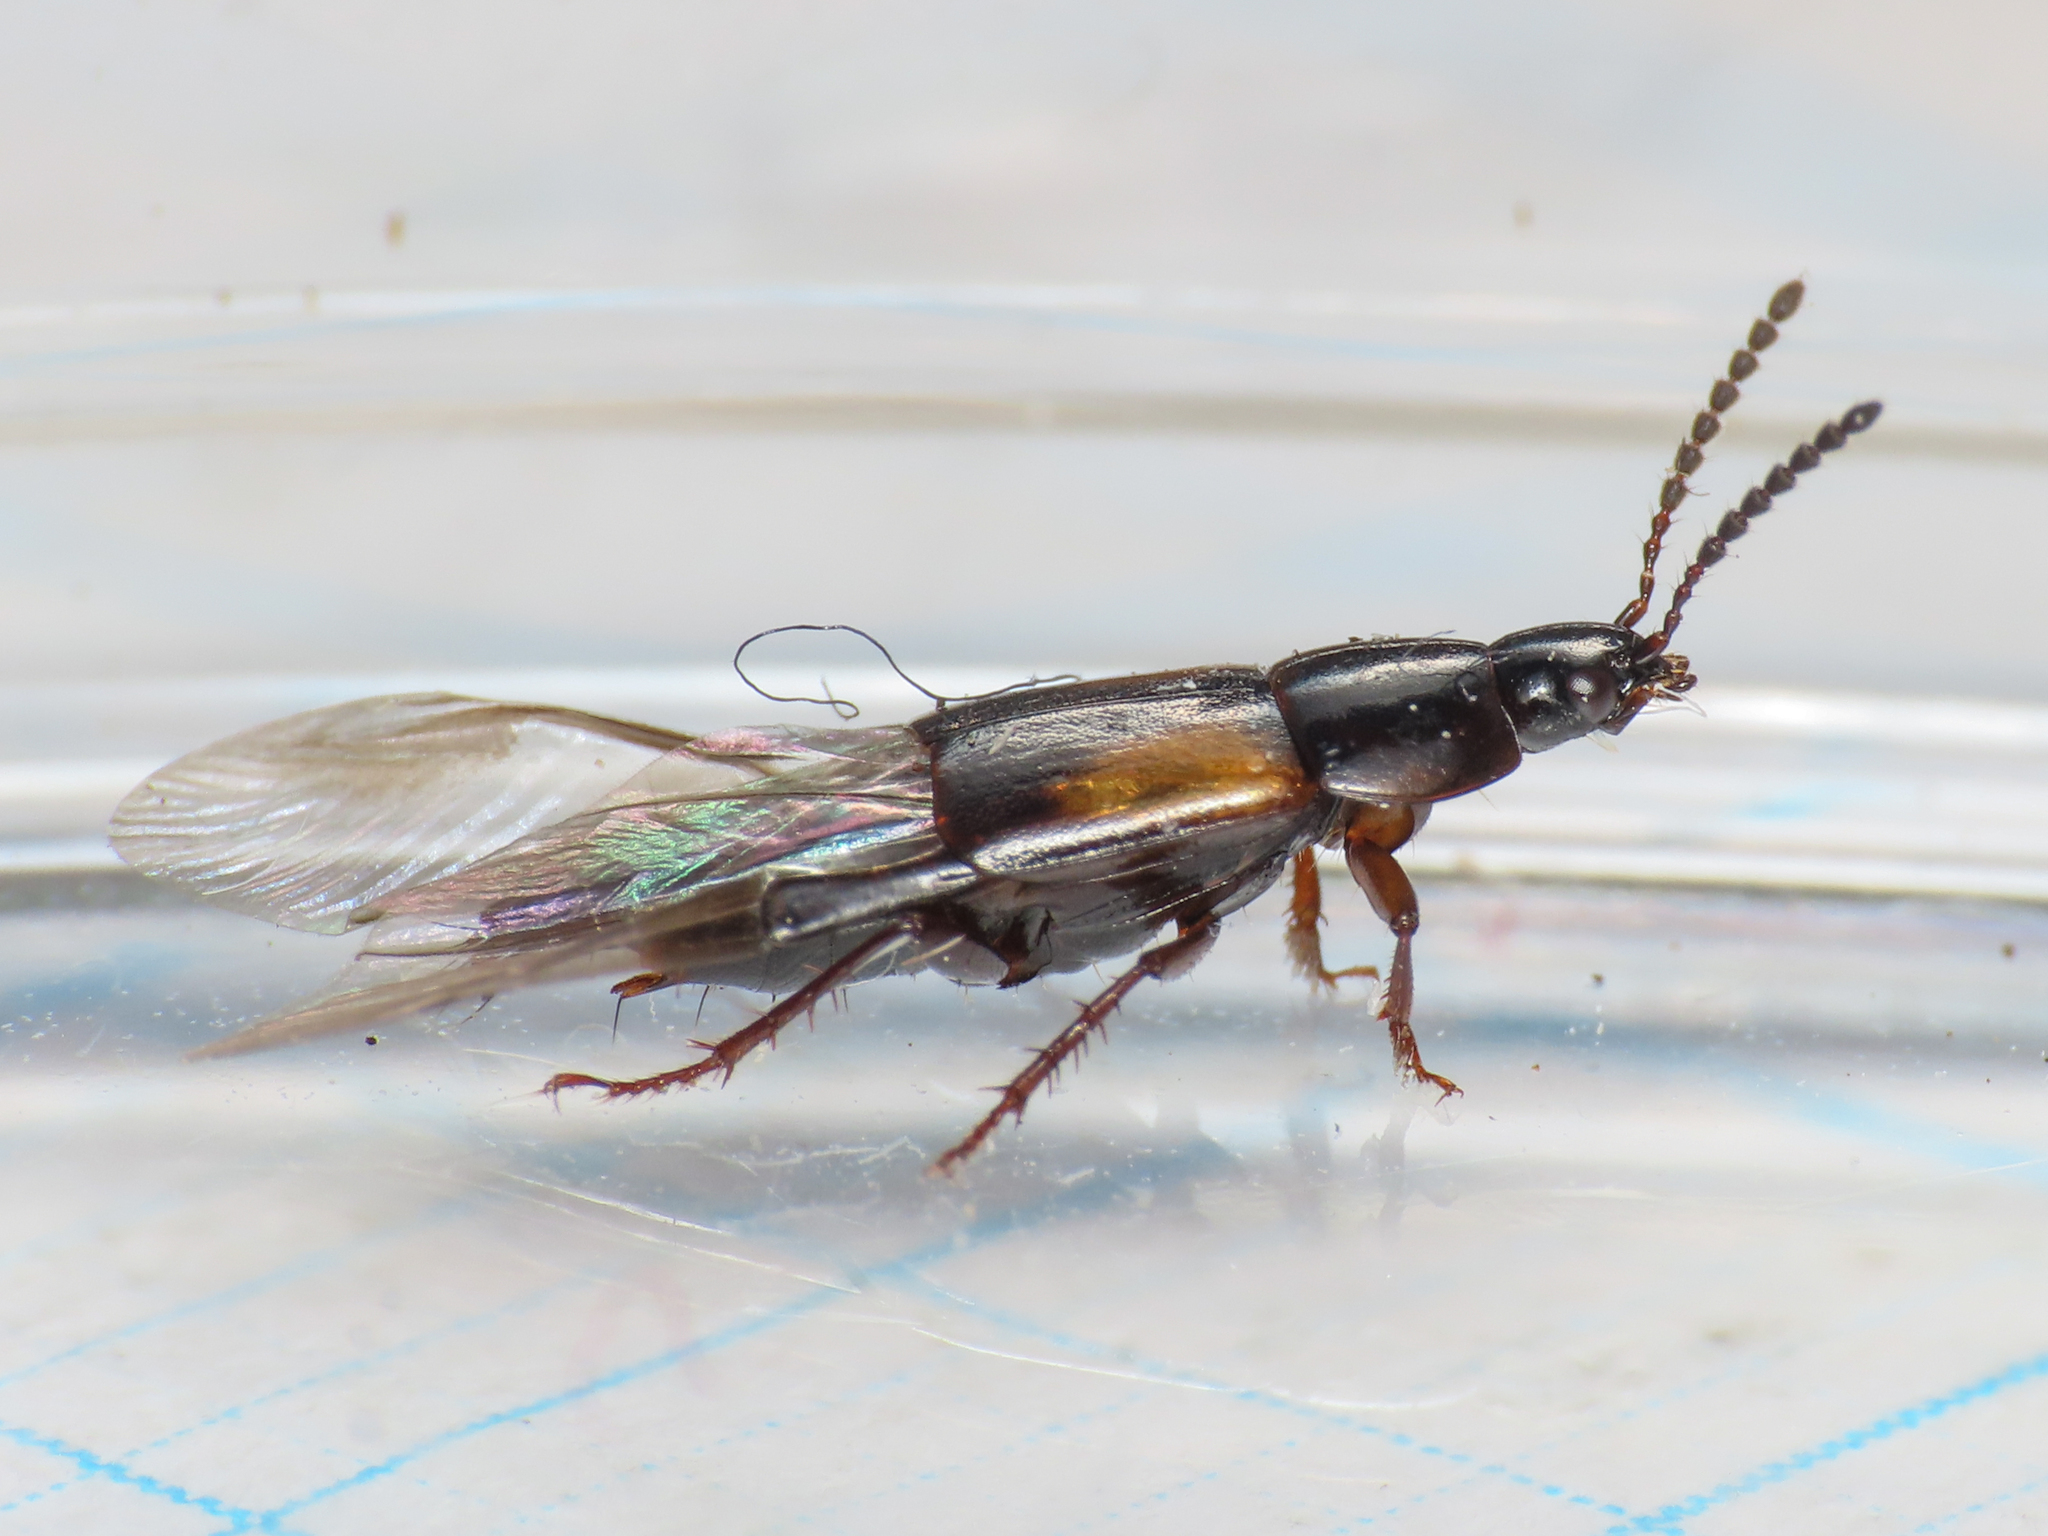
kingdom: Animalia
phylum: Arthropoda
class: Insecta
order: Coleoptera
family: Staphylinidae
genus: Tachinus
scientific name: Tachinus subterraneus
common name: Staph beetle
